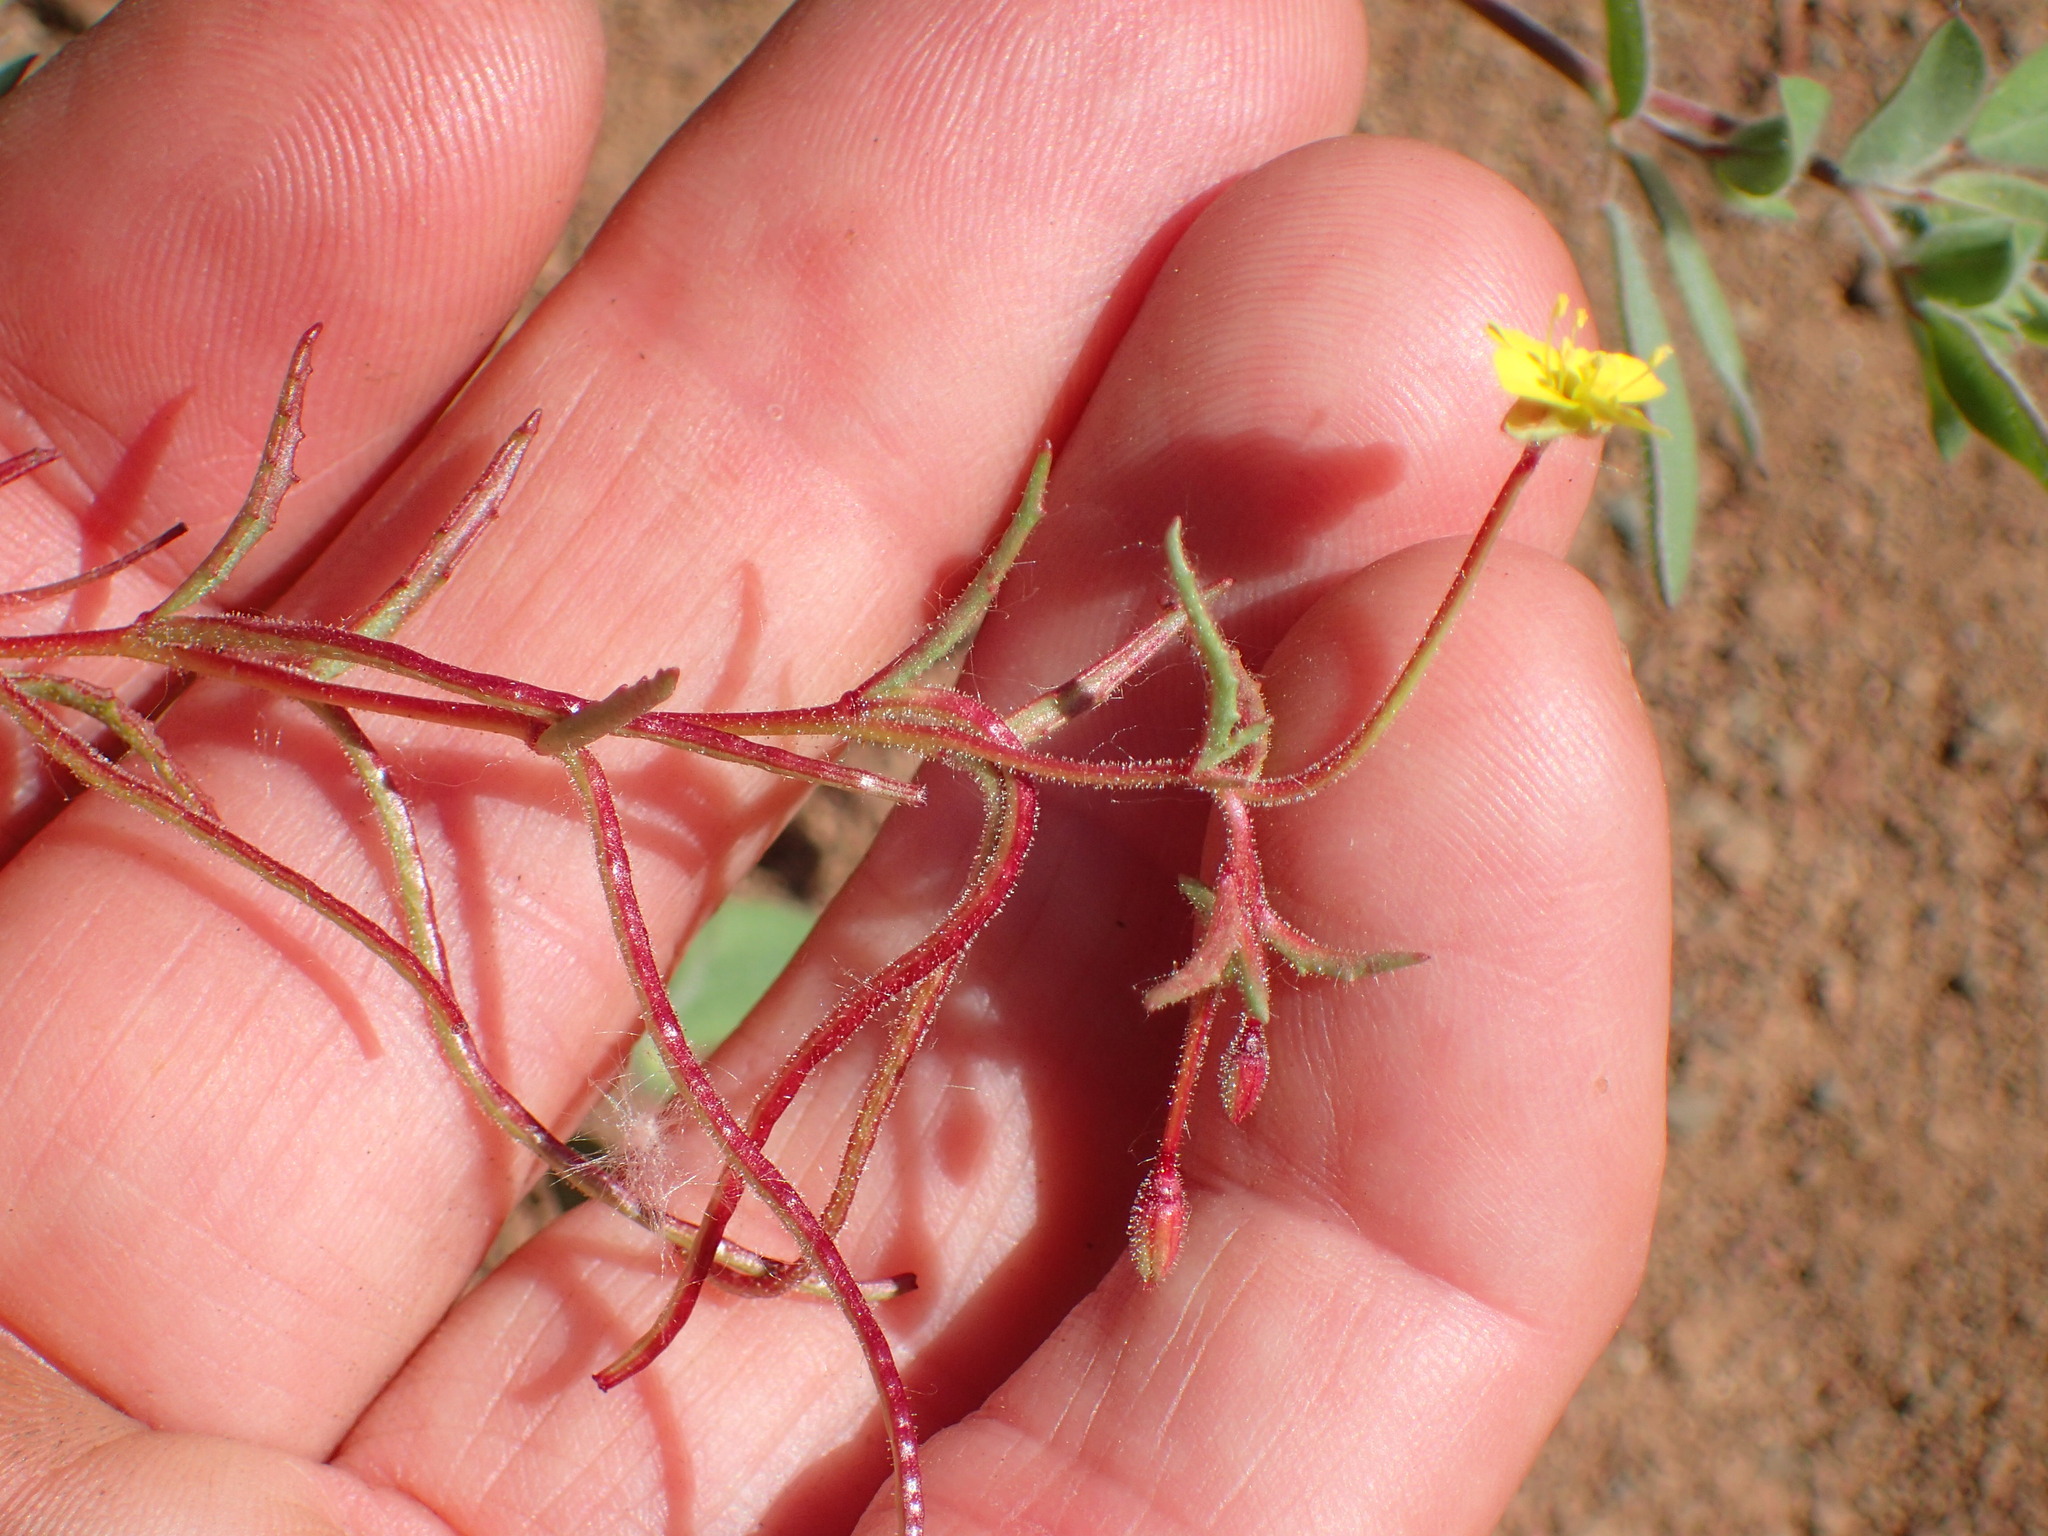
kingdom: Plantae
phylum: Tracheophyta
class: Magnoliopsida
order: Myrtales
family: Onagraceae
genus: Camissonia
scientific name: Camissonia contorta
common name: Contorted suncup
